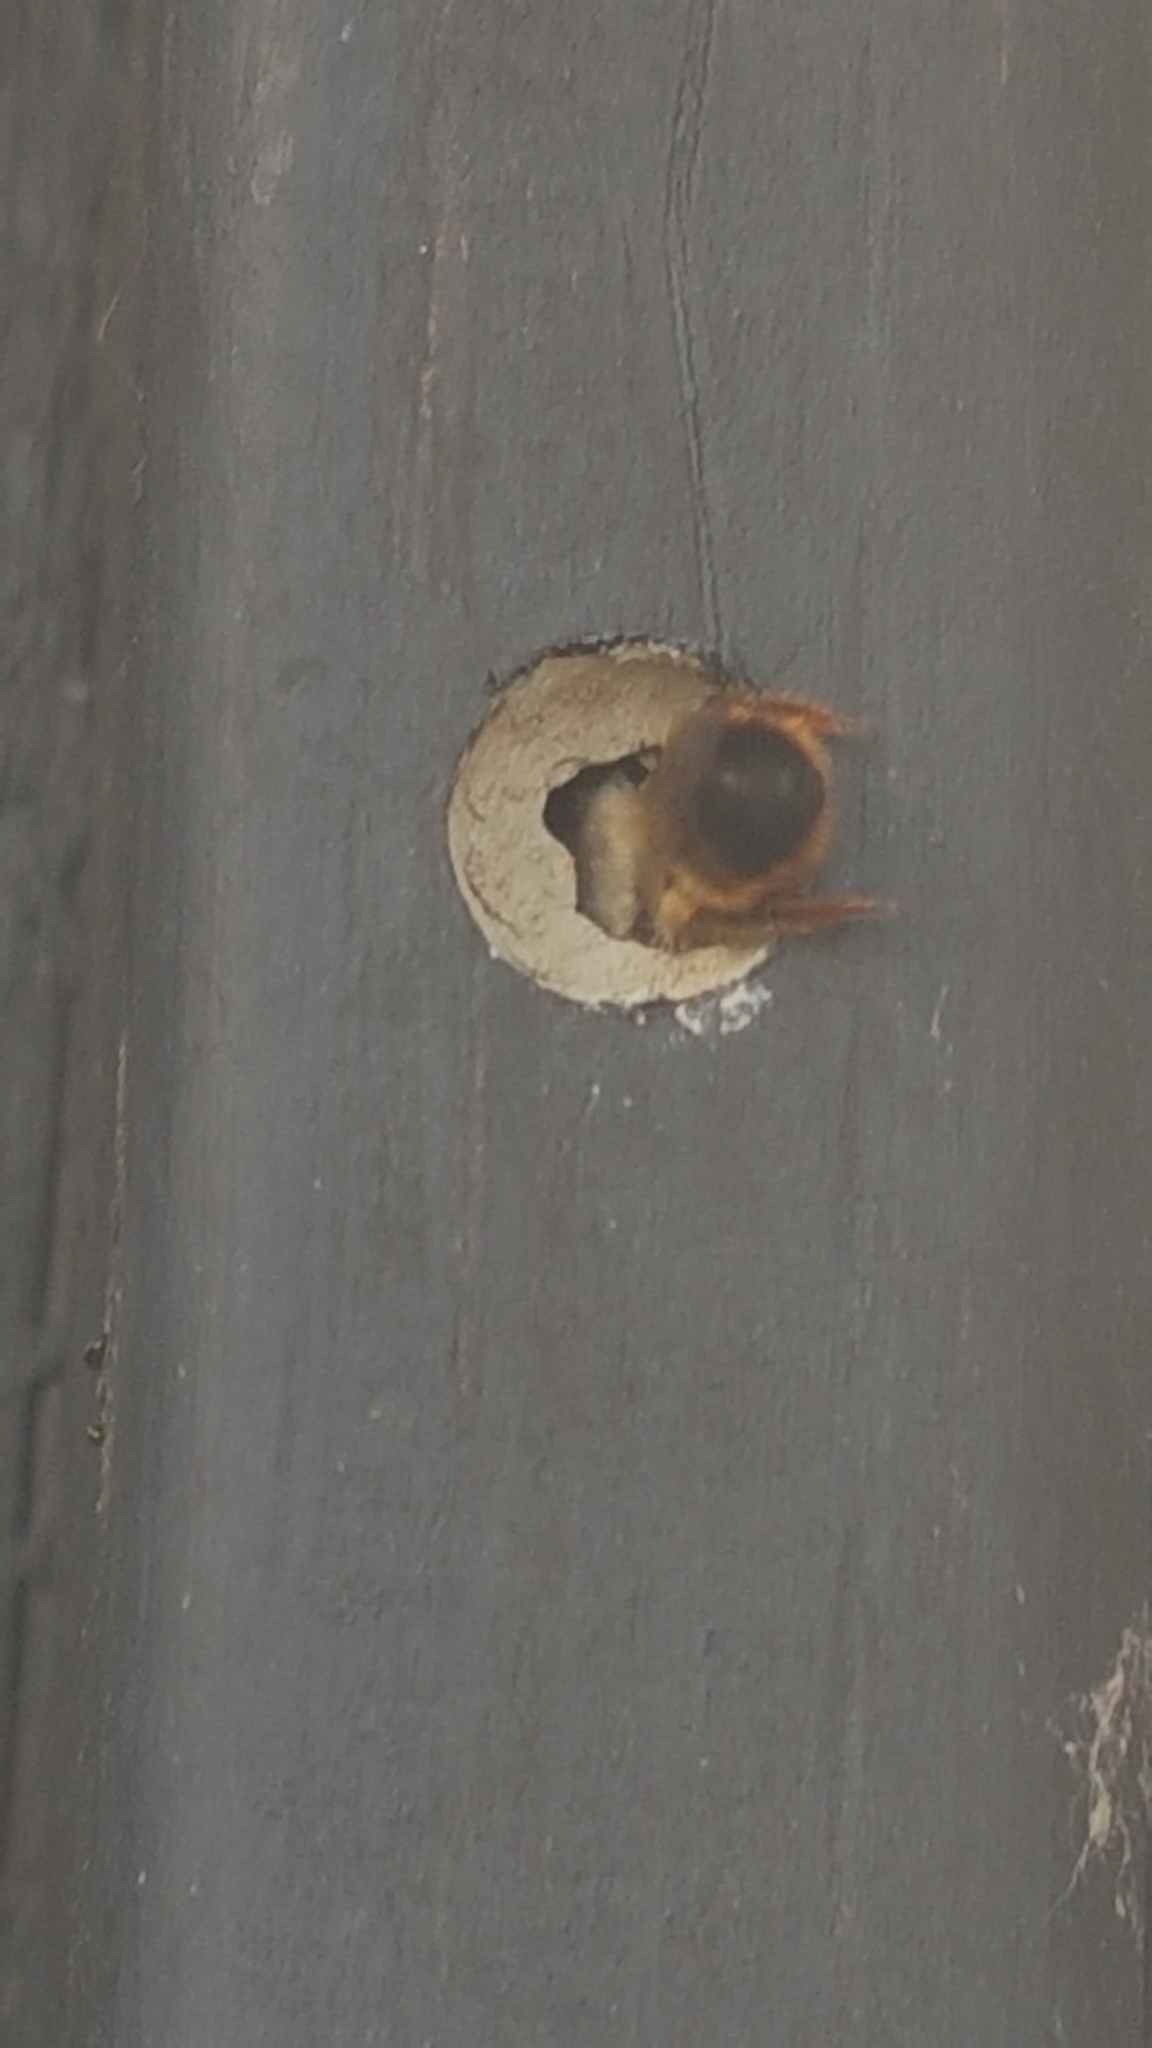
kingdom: Animalia
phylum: Arthropoda
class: Insecta
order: Hymenoptera
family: Megachilidae
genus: Osmia
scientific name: Osmia bicornis
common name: Red mason bee
